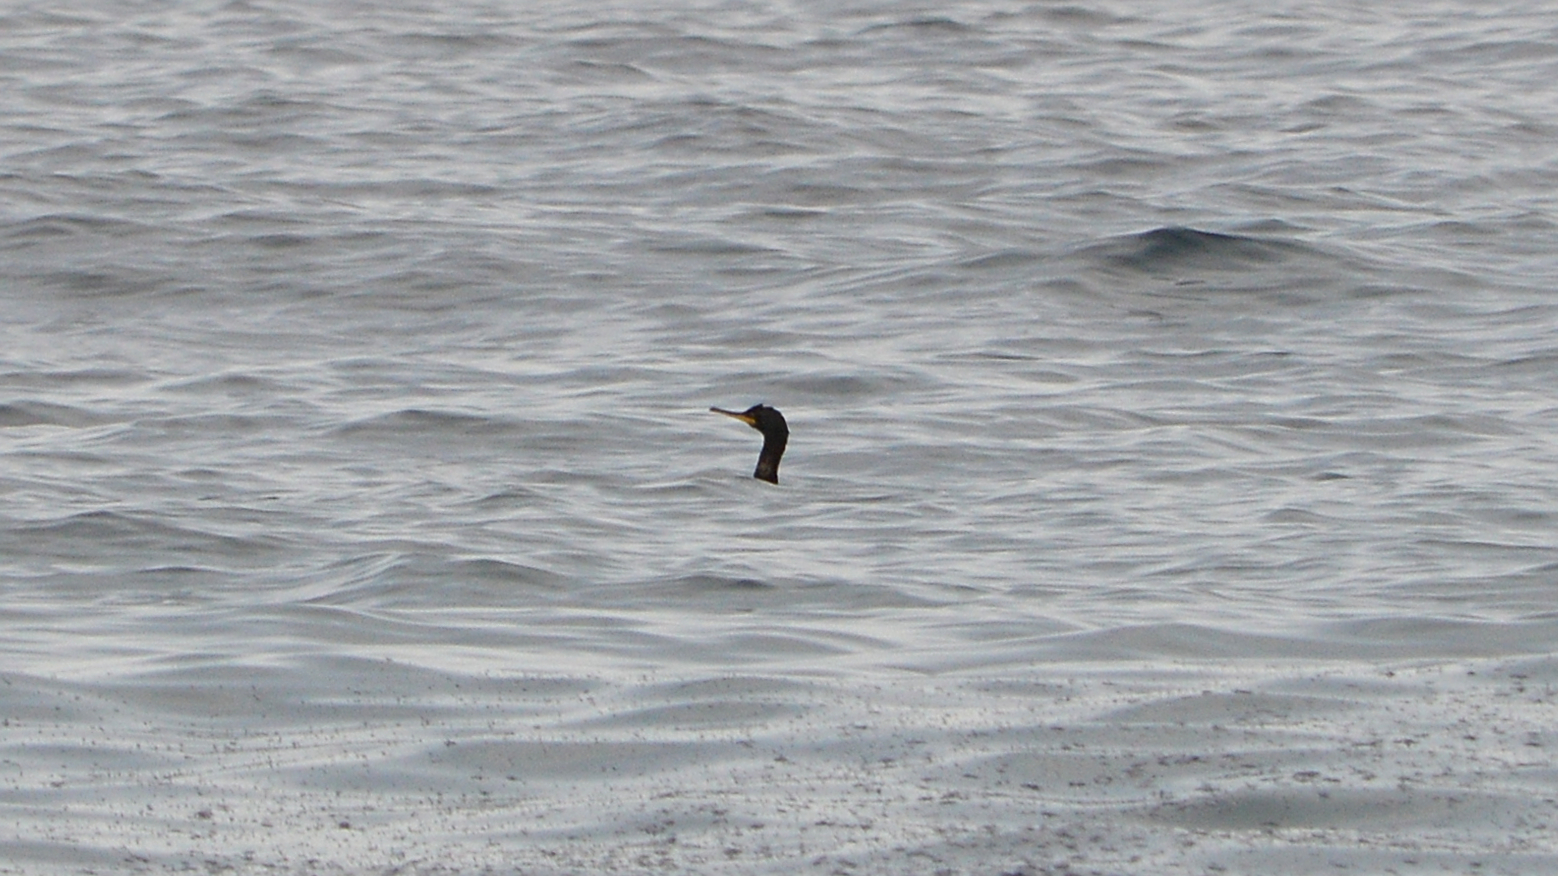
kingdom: Animalia
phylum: Chordata
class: Aves
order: Suliformes
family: Phalacrocoracidae
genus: Phalacrocorax
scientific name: Phalacrocorax aristotelis
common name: European shag
